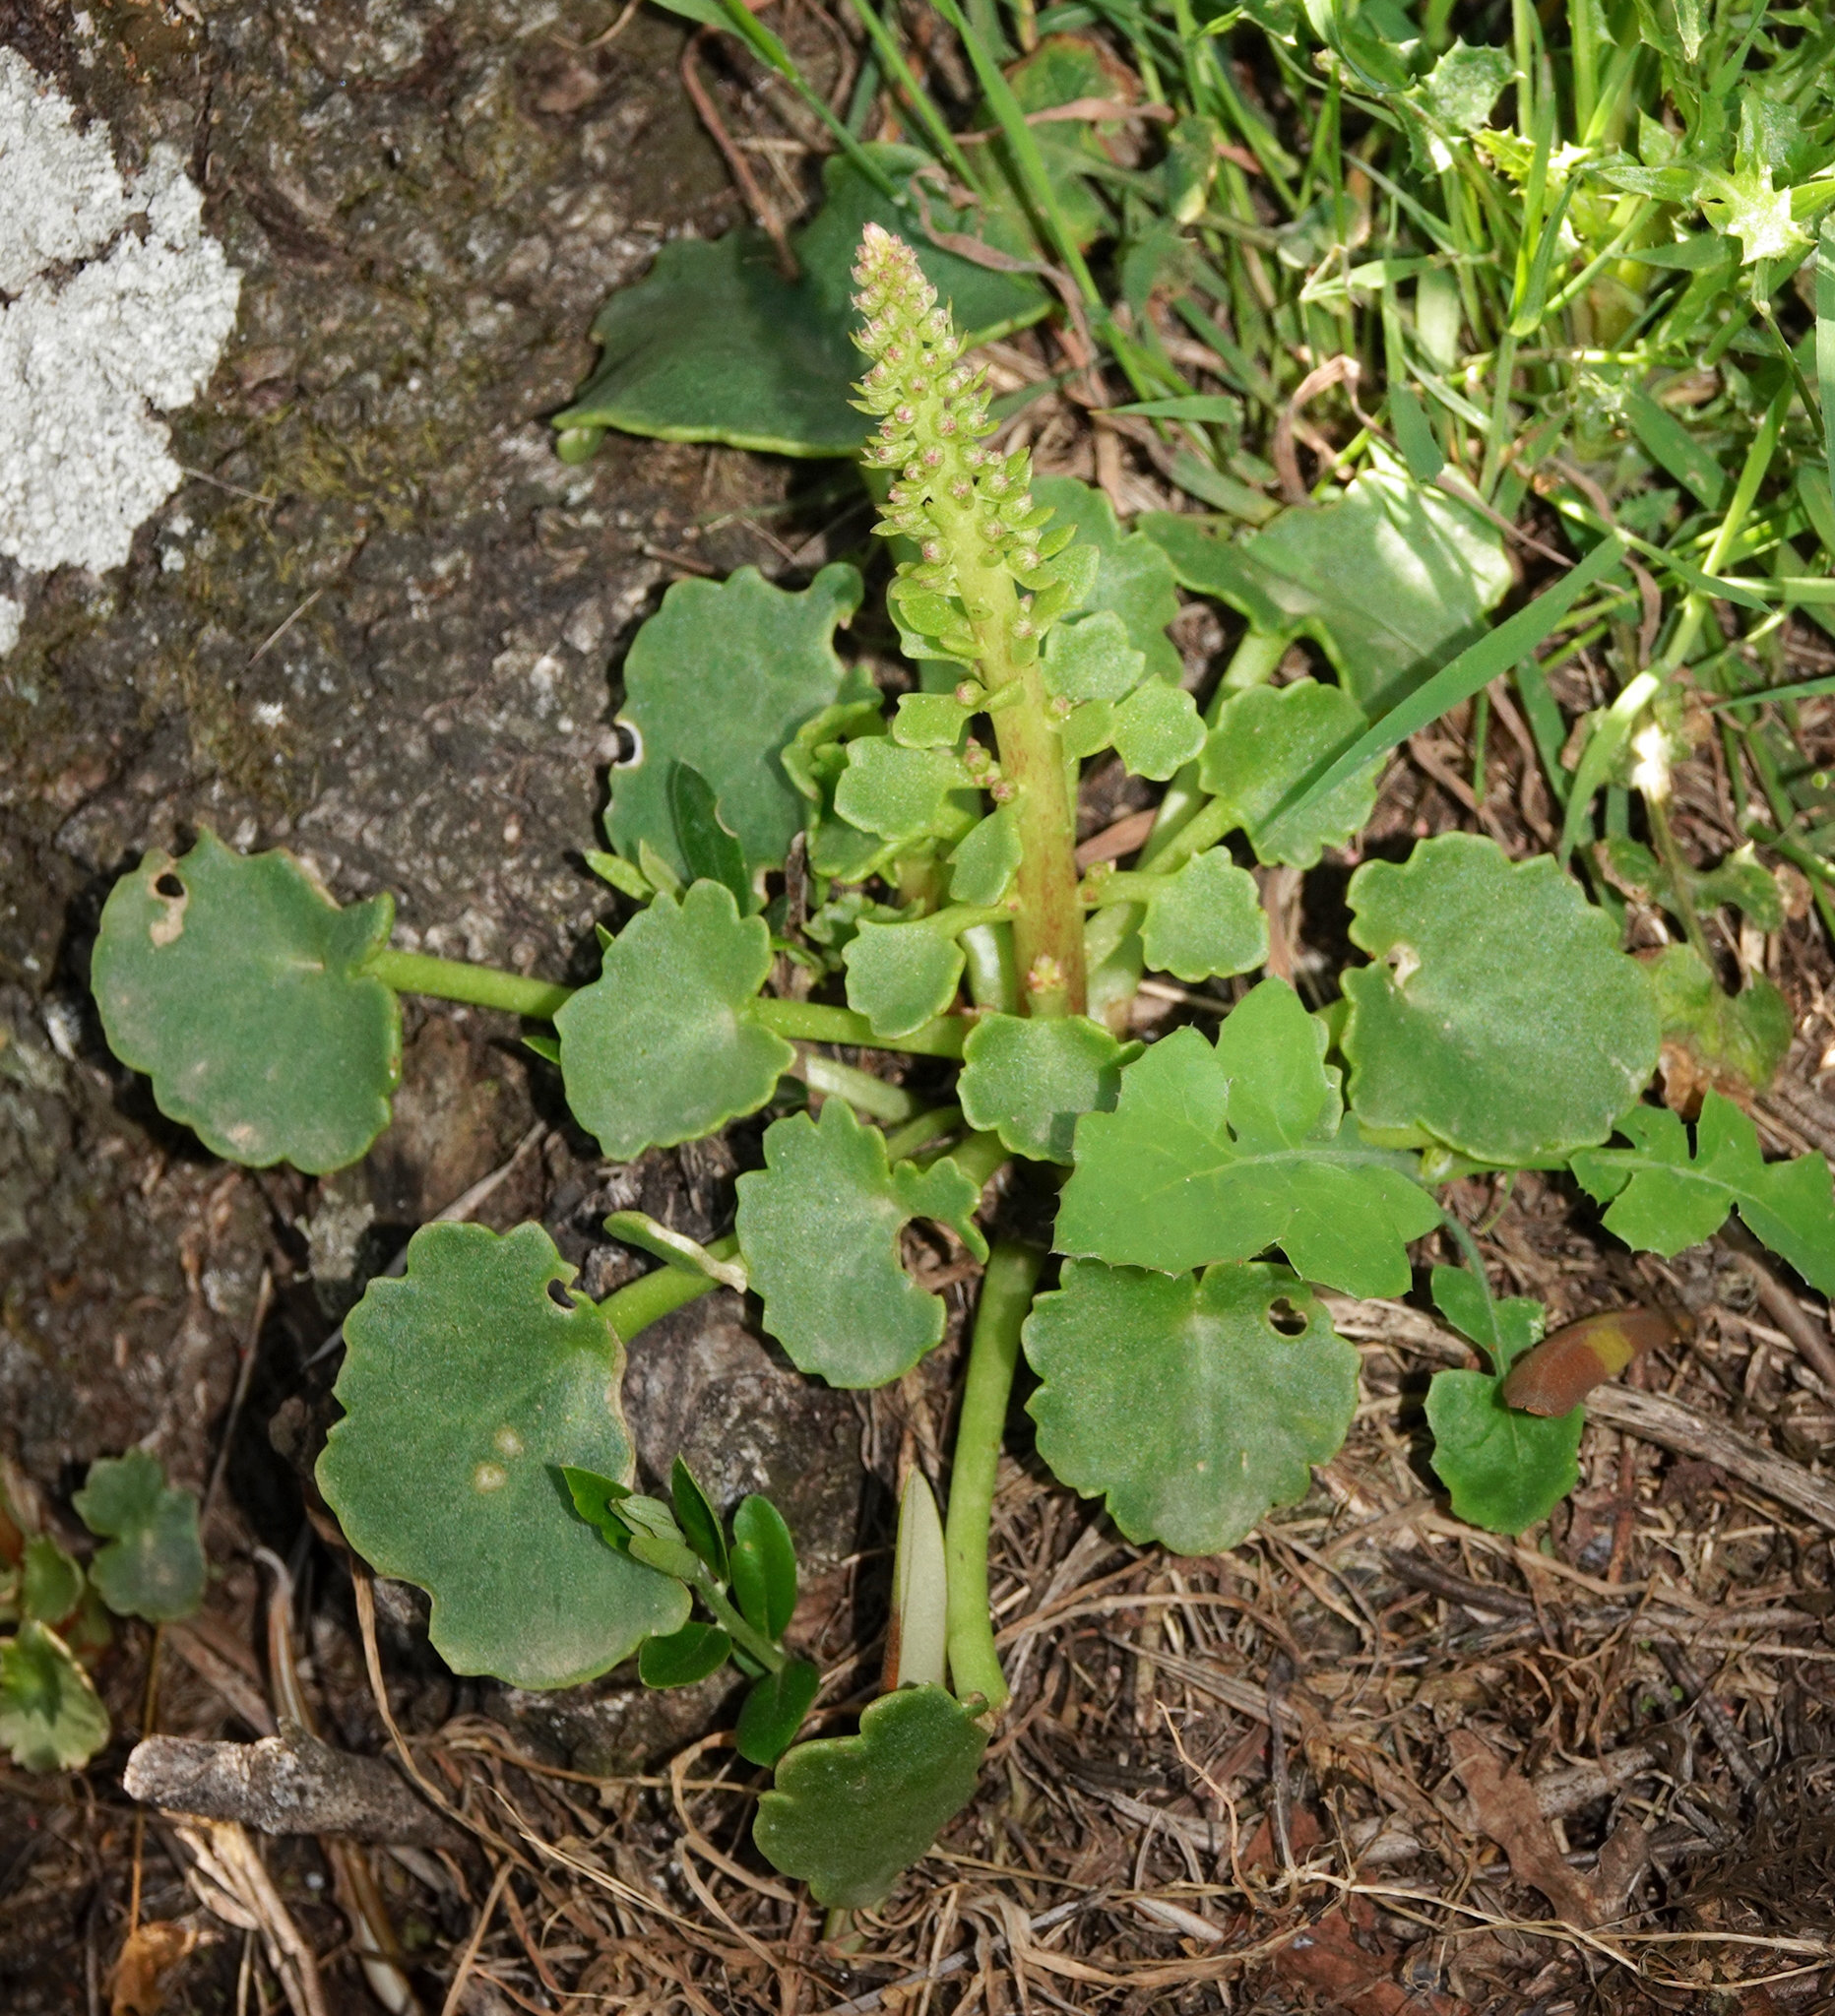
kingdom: Plantae
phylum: Tracheophyta
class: Magnoliopsida
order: Saxifragales
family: Crassulaceae
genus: Umbilicus
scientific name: Umbilicus rupestris
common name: Navelwort
